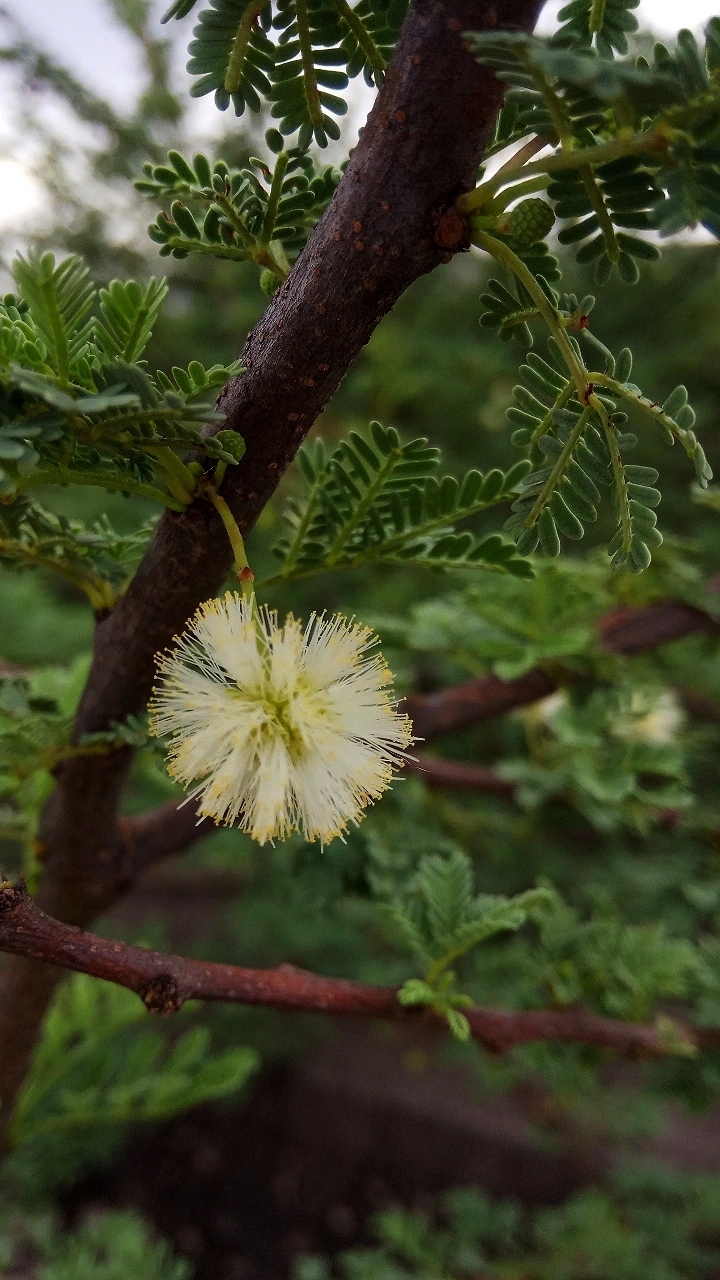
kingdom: Plantae
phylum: Tracheophyta
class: Magnoliopsida
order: Fabales
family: Fabaceae
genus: Vachellia
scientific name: Vachellia tortilis
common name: Umbrella thorn acacia
